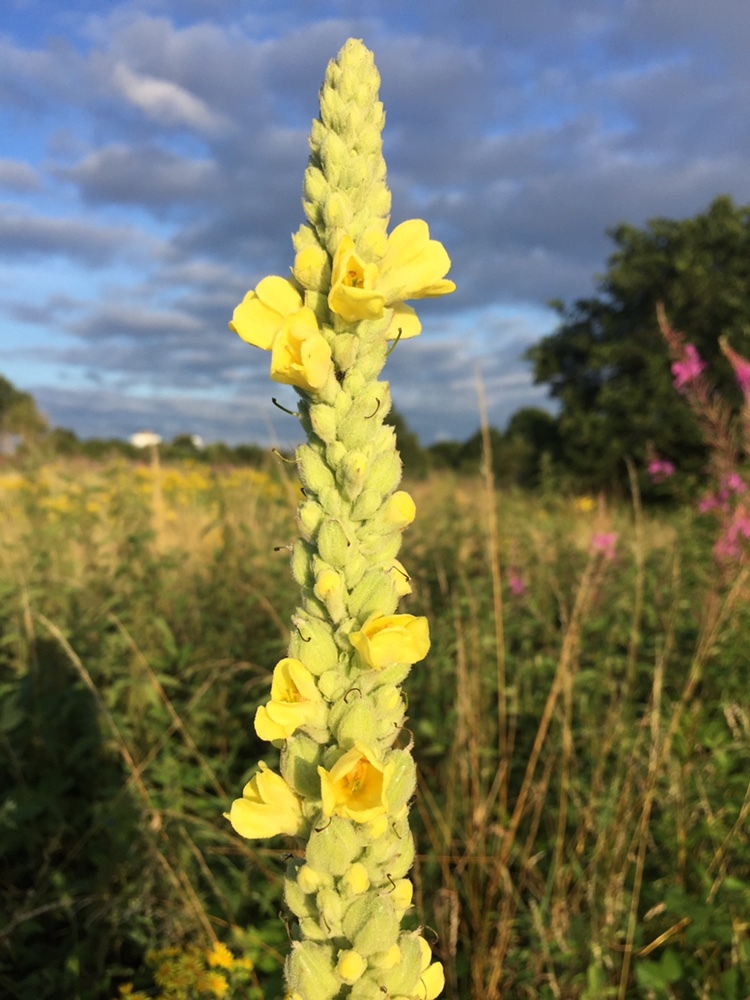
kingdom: Plantae
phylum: Tracheophyta
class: Magnoliopsida
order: Lamiales
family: Scrophulariaceae
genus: Verbascum
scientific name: Verbascum thapsus
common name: Common mullein
